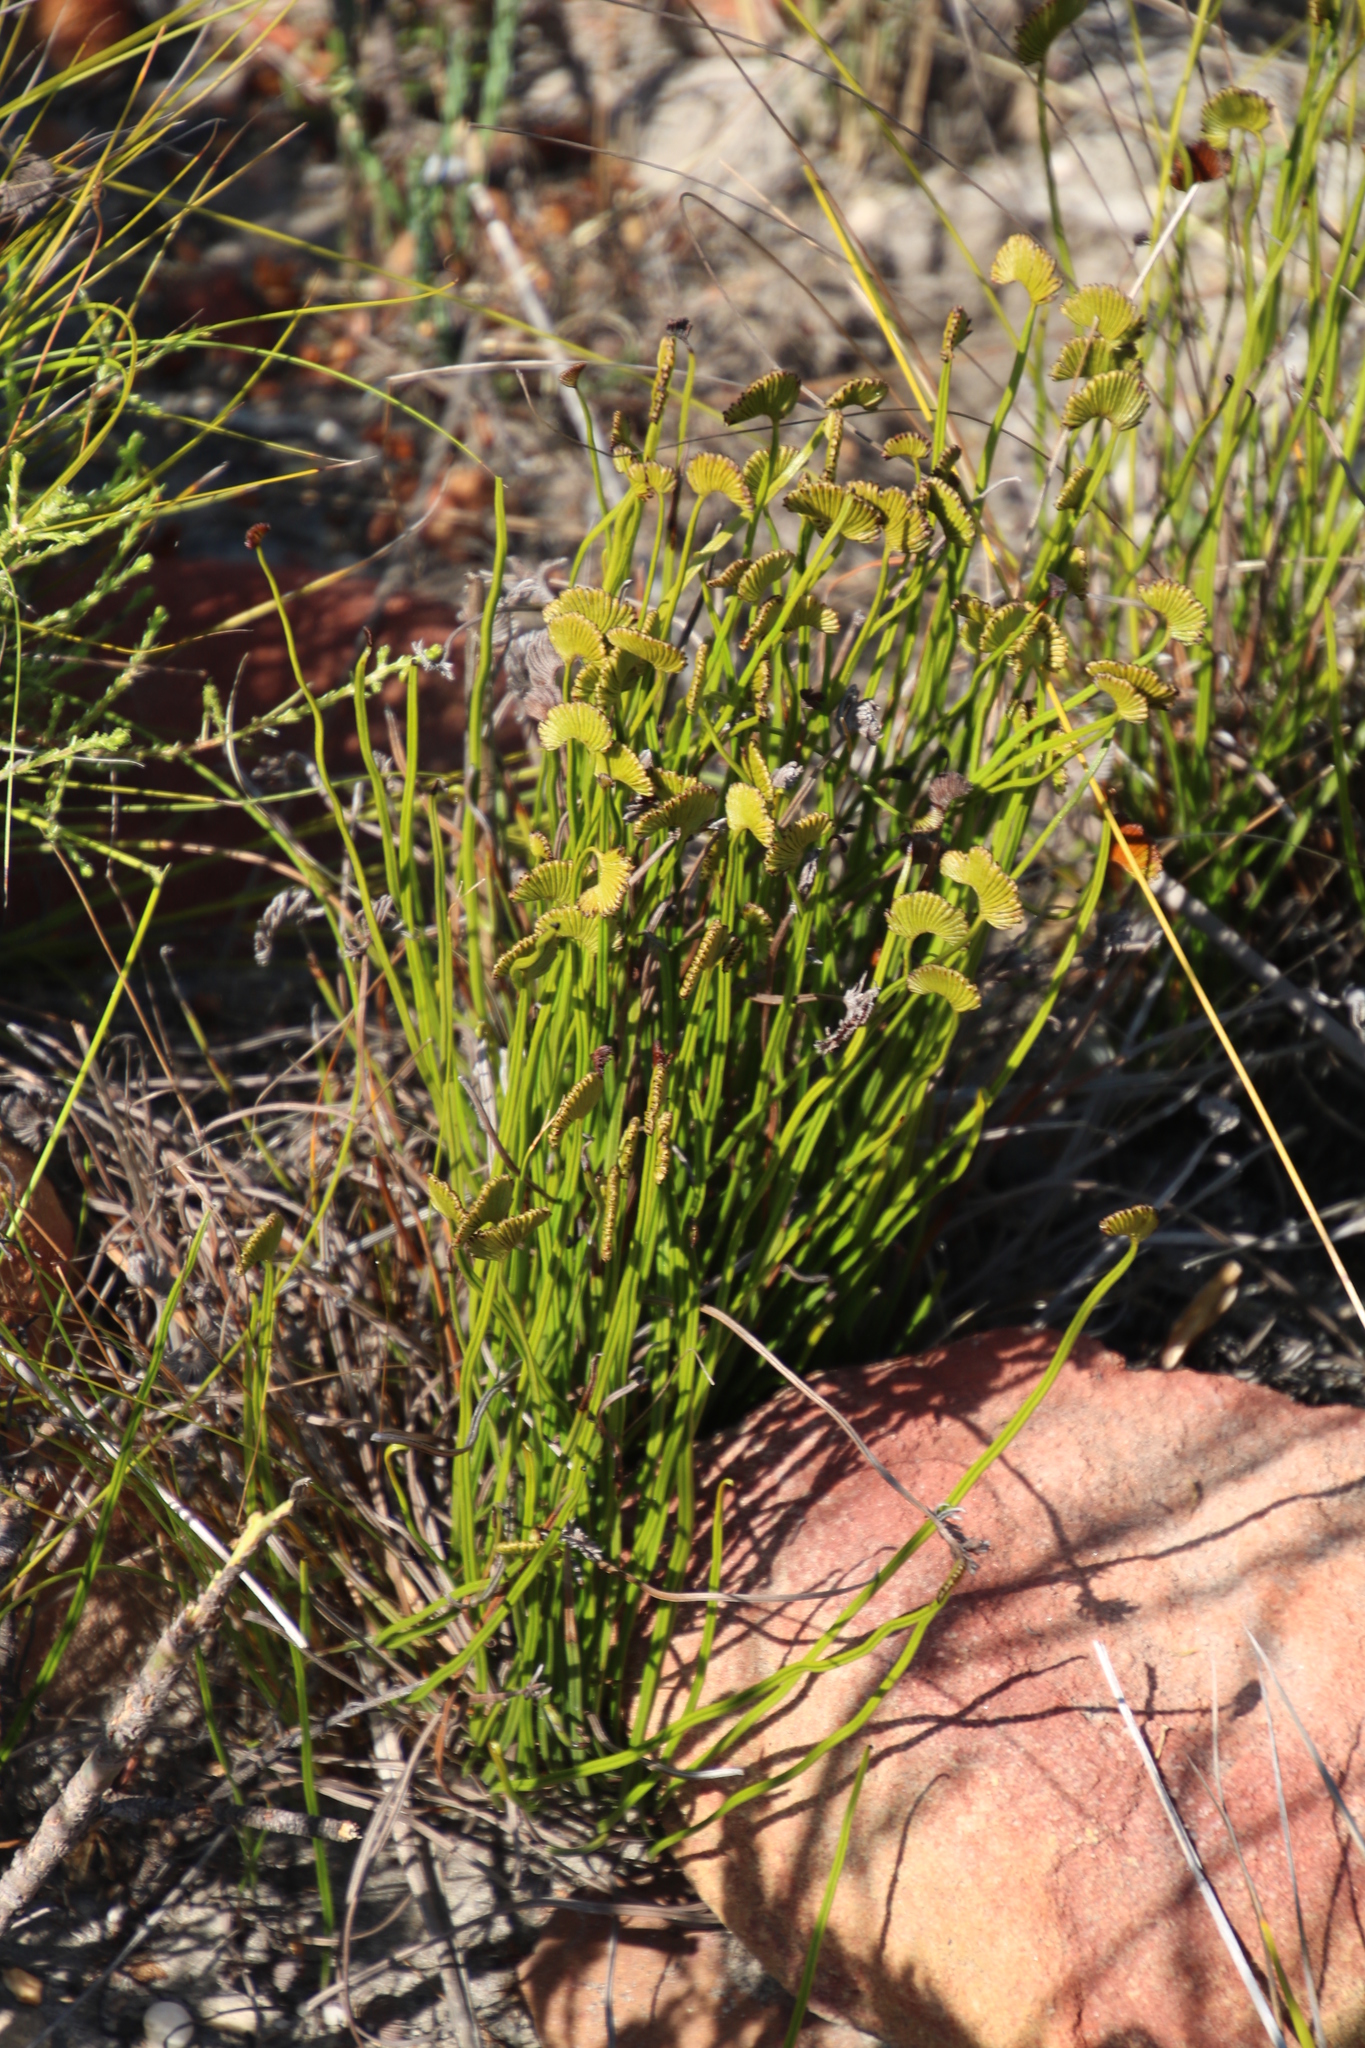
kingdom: Plantae
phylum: Tracheophyta
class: Polypodiopsida
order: Schizaeales
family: Schizaeaceae
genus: Schizaea
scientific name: Schizaea pectinata
